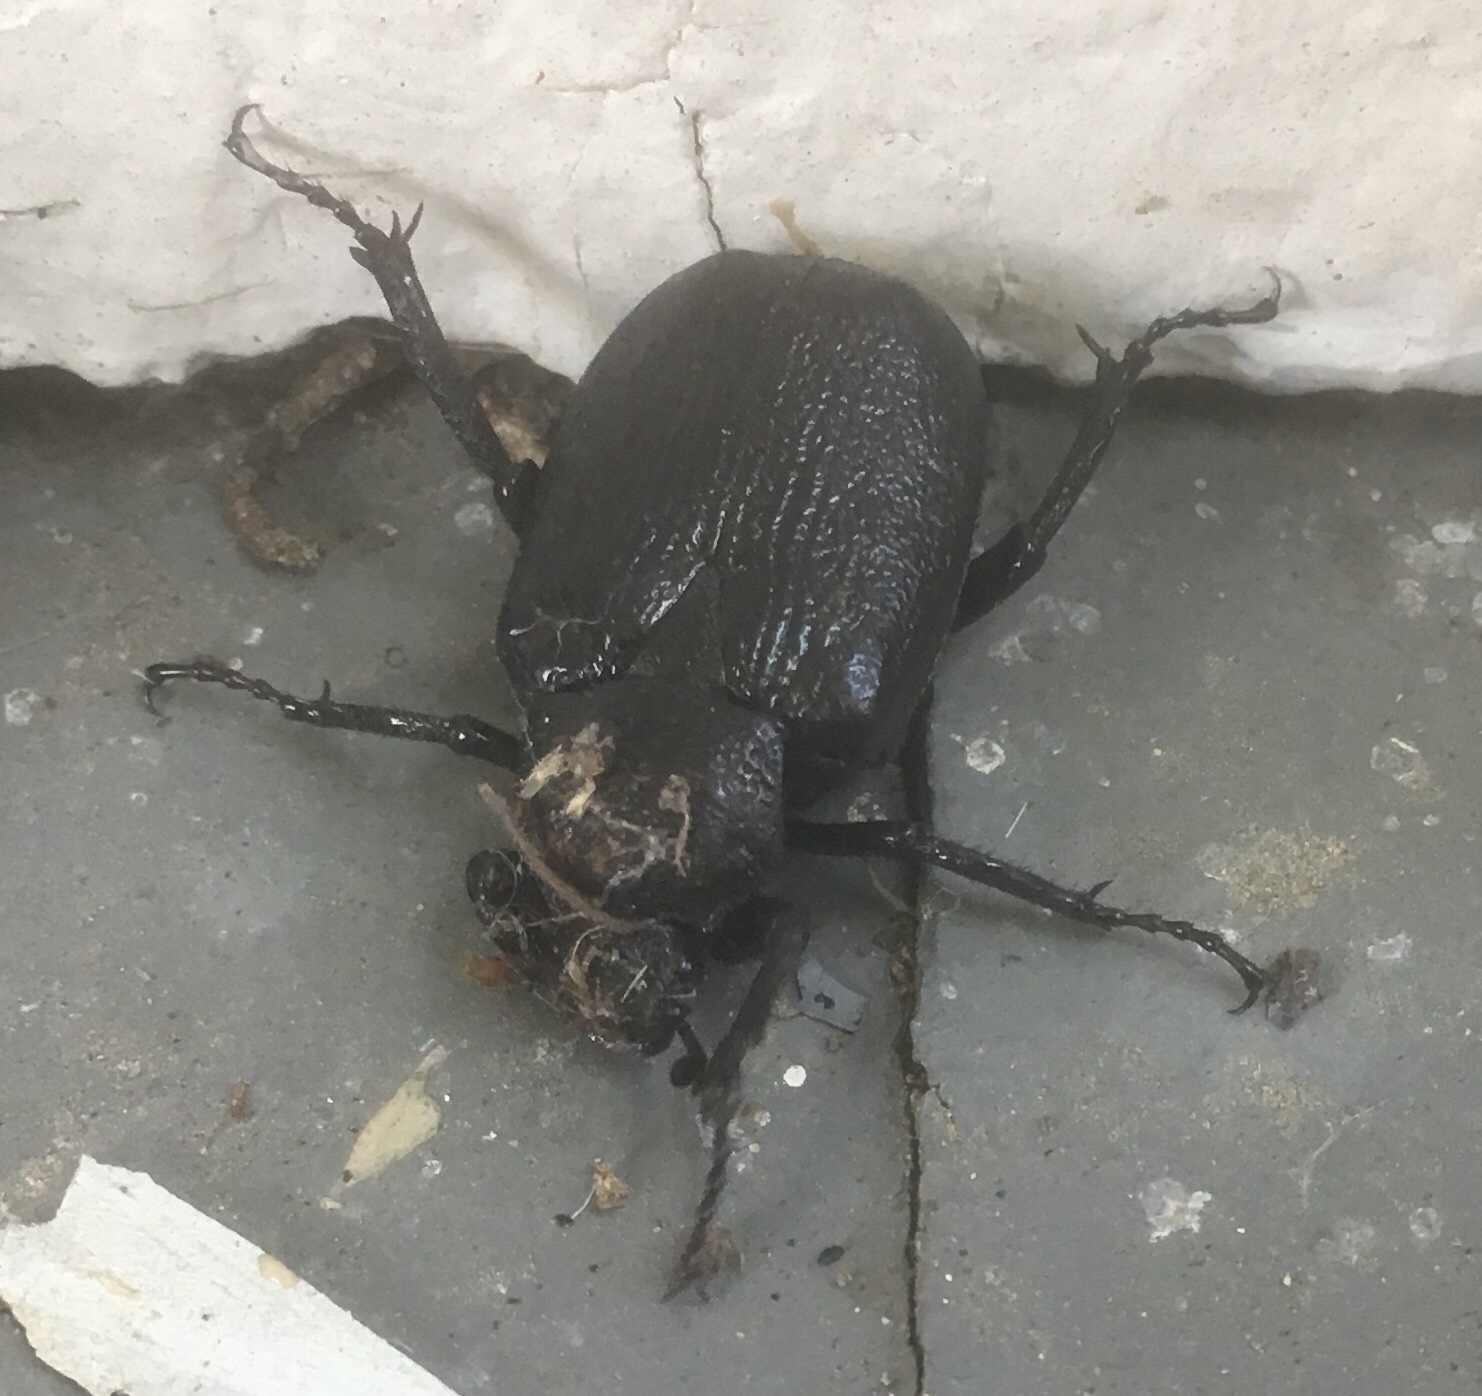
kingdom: Animalia
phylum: Arthropoda
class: Insecta
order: Coleoptera
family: Scarabaeidae
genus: Osmoderma
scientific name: Osmoderma scabra
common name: Rough hermit beetle
